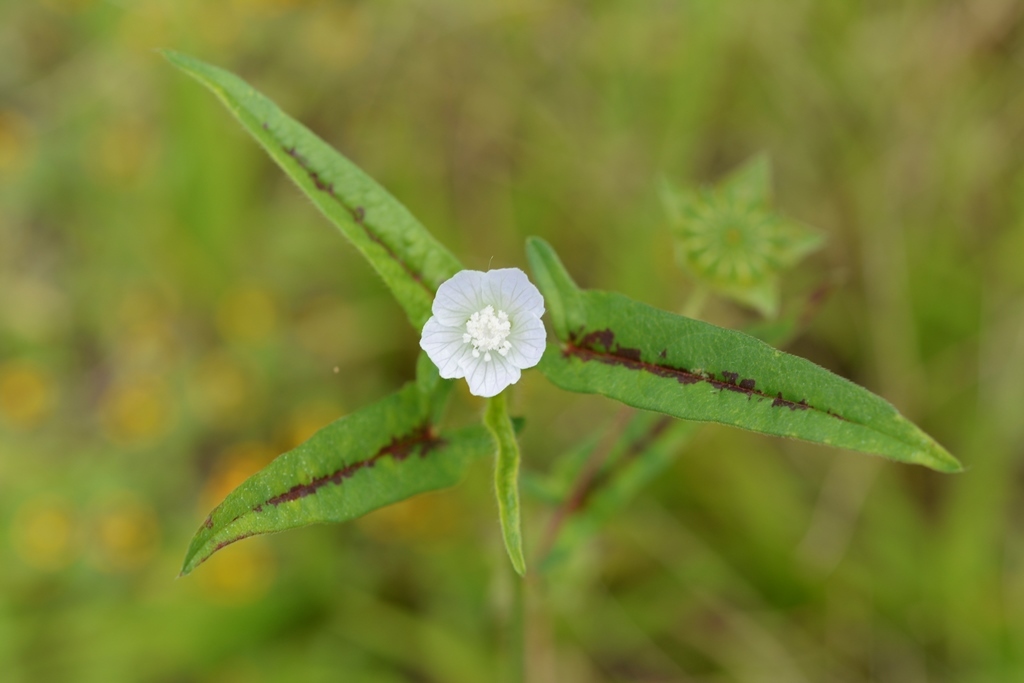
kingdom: Plantae
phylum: Tracheophyta
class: Magnoliopsida
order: Malvales
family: Malvaceae
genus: Anoda
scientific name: Anoda acerifolia
